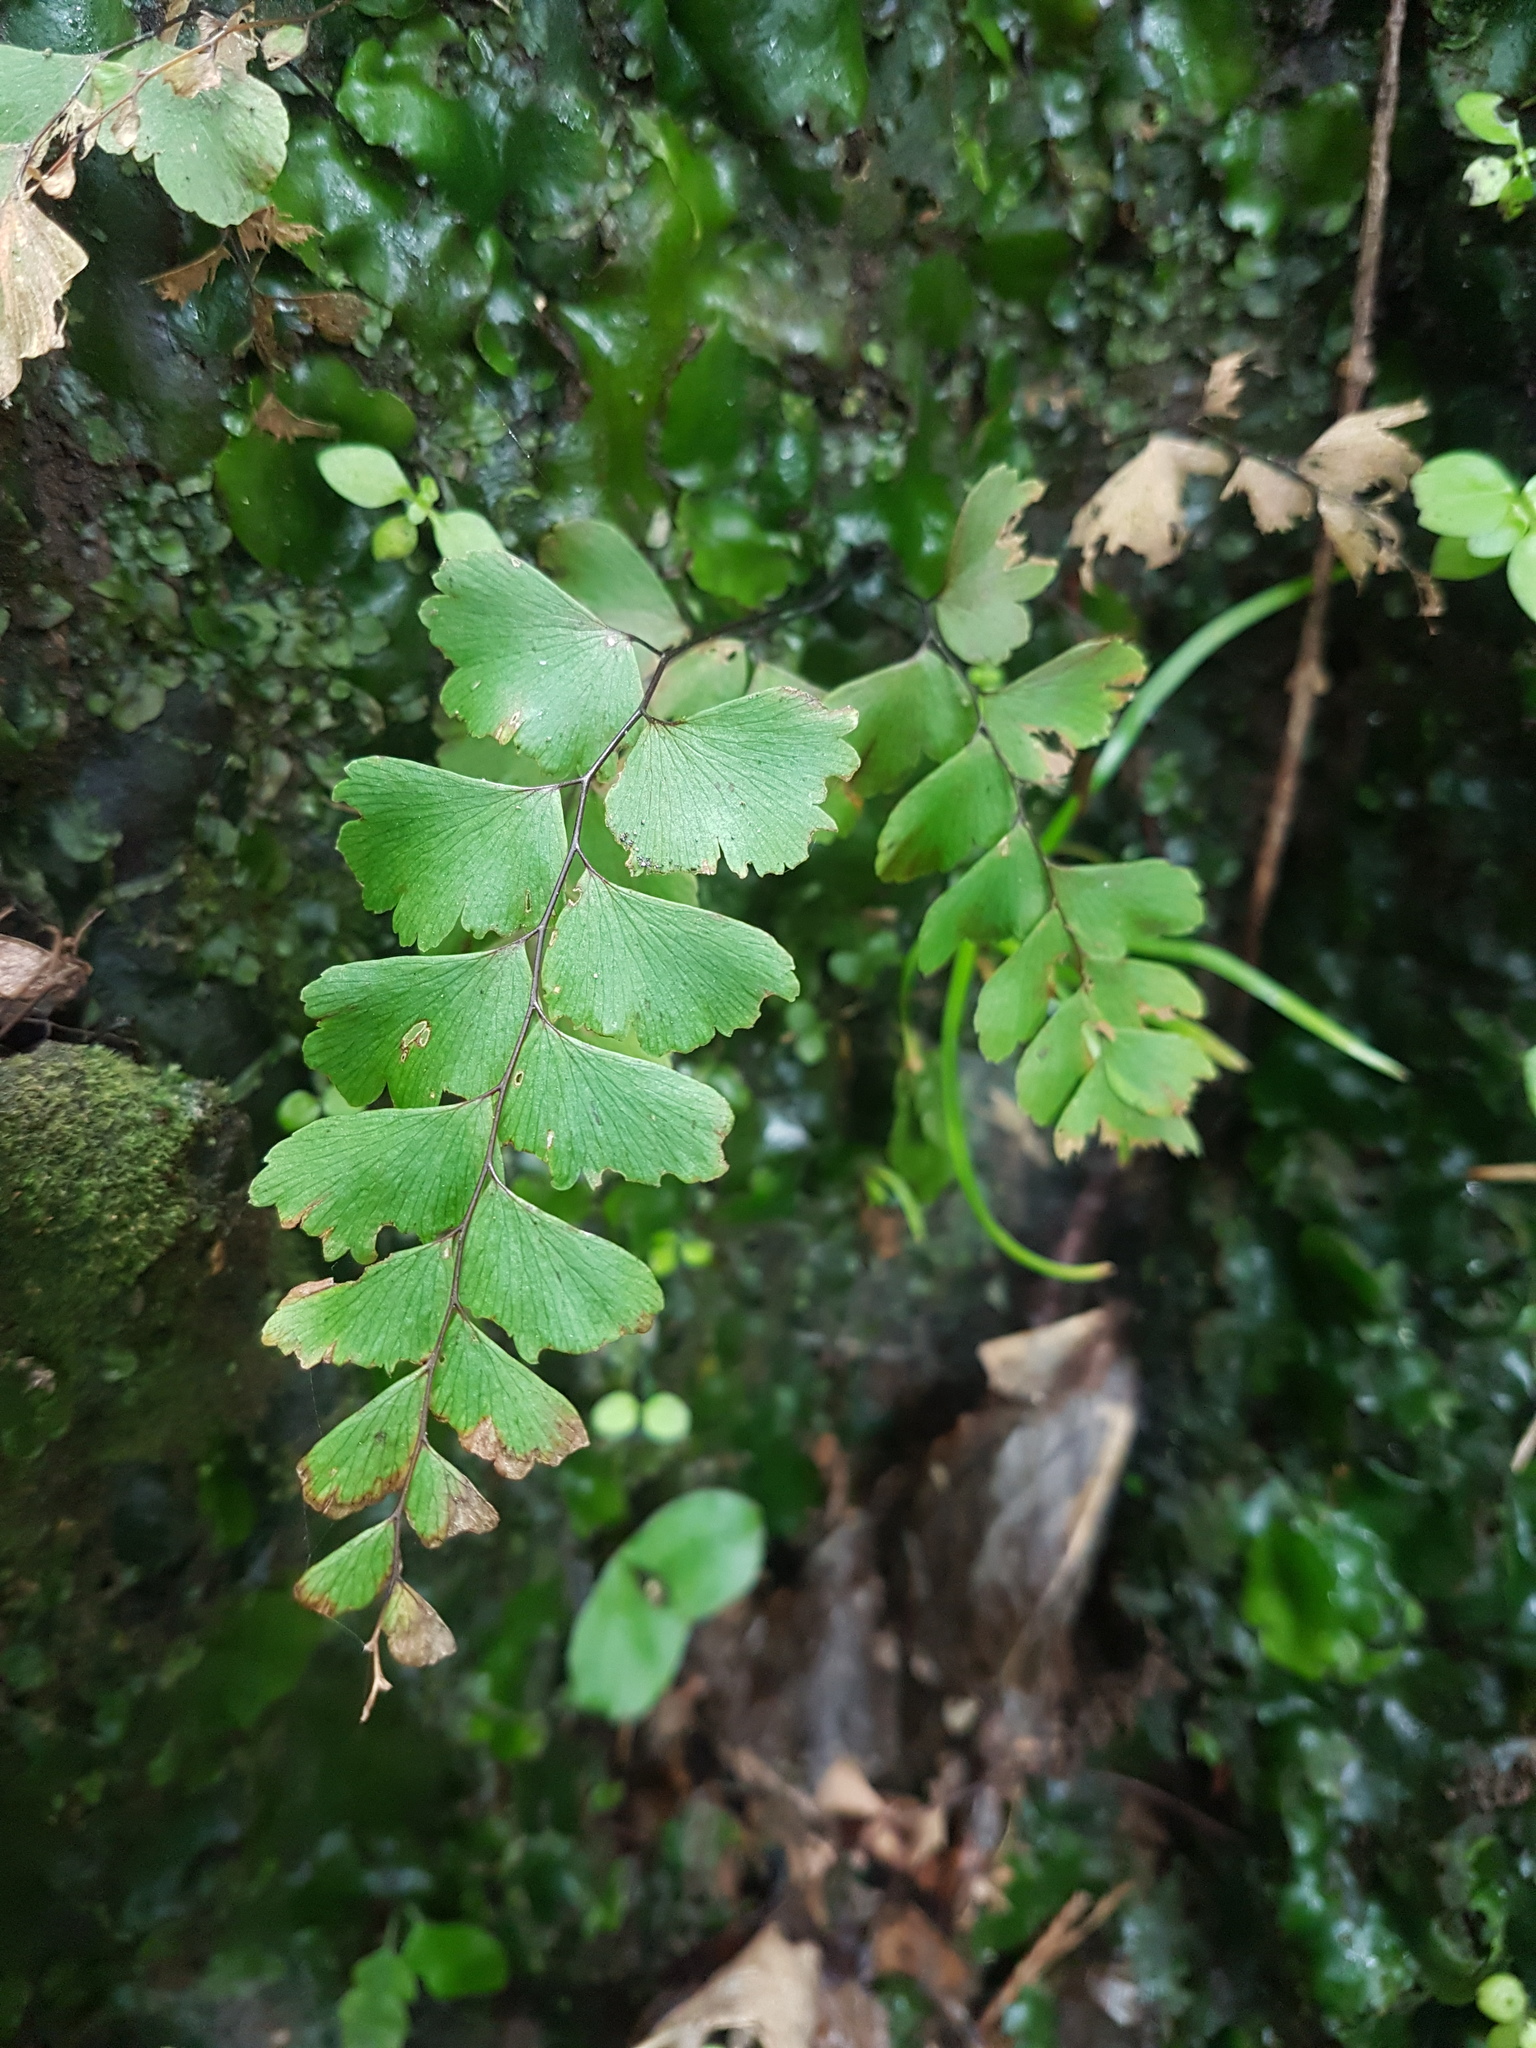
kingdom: Plantae
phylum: Tracheophyta
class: Polypodiopsida
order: Polypodiales
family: Pteridaceae
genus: Adiantum
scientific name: Adiantum cunninghamii
